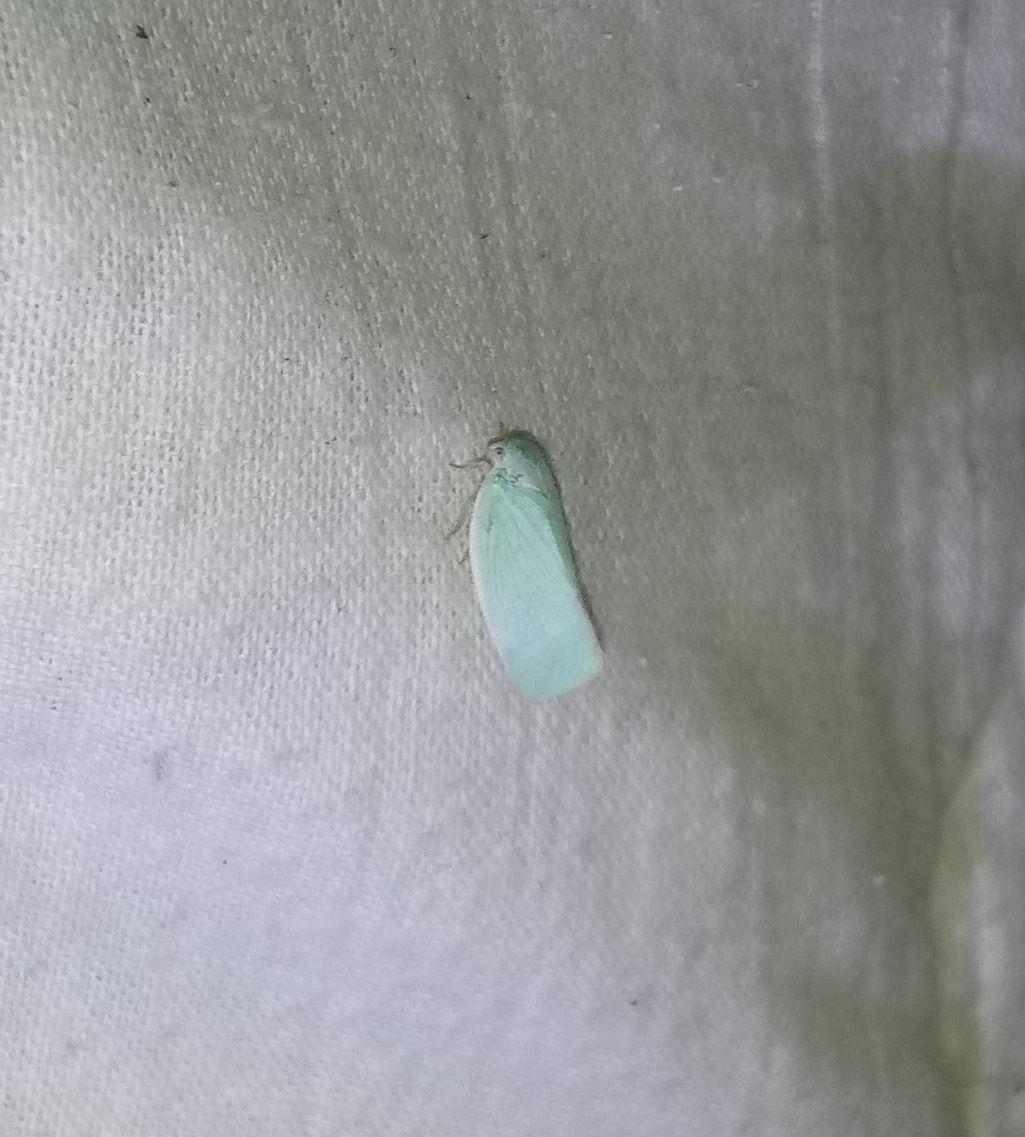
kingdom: Animalia
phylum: Arthropoda
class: Insecta
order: Hemiptera
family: Flatidae
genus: Ormenoides
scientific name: Ormenoides venusta
